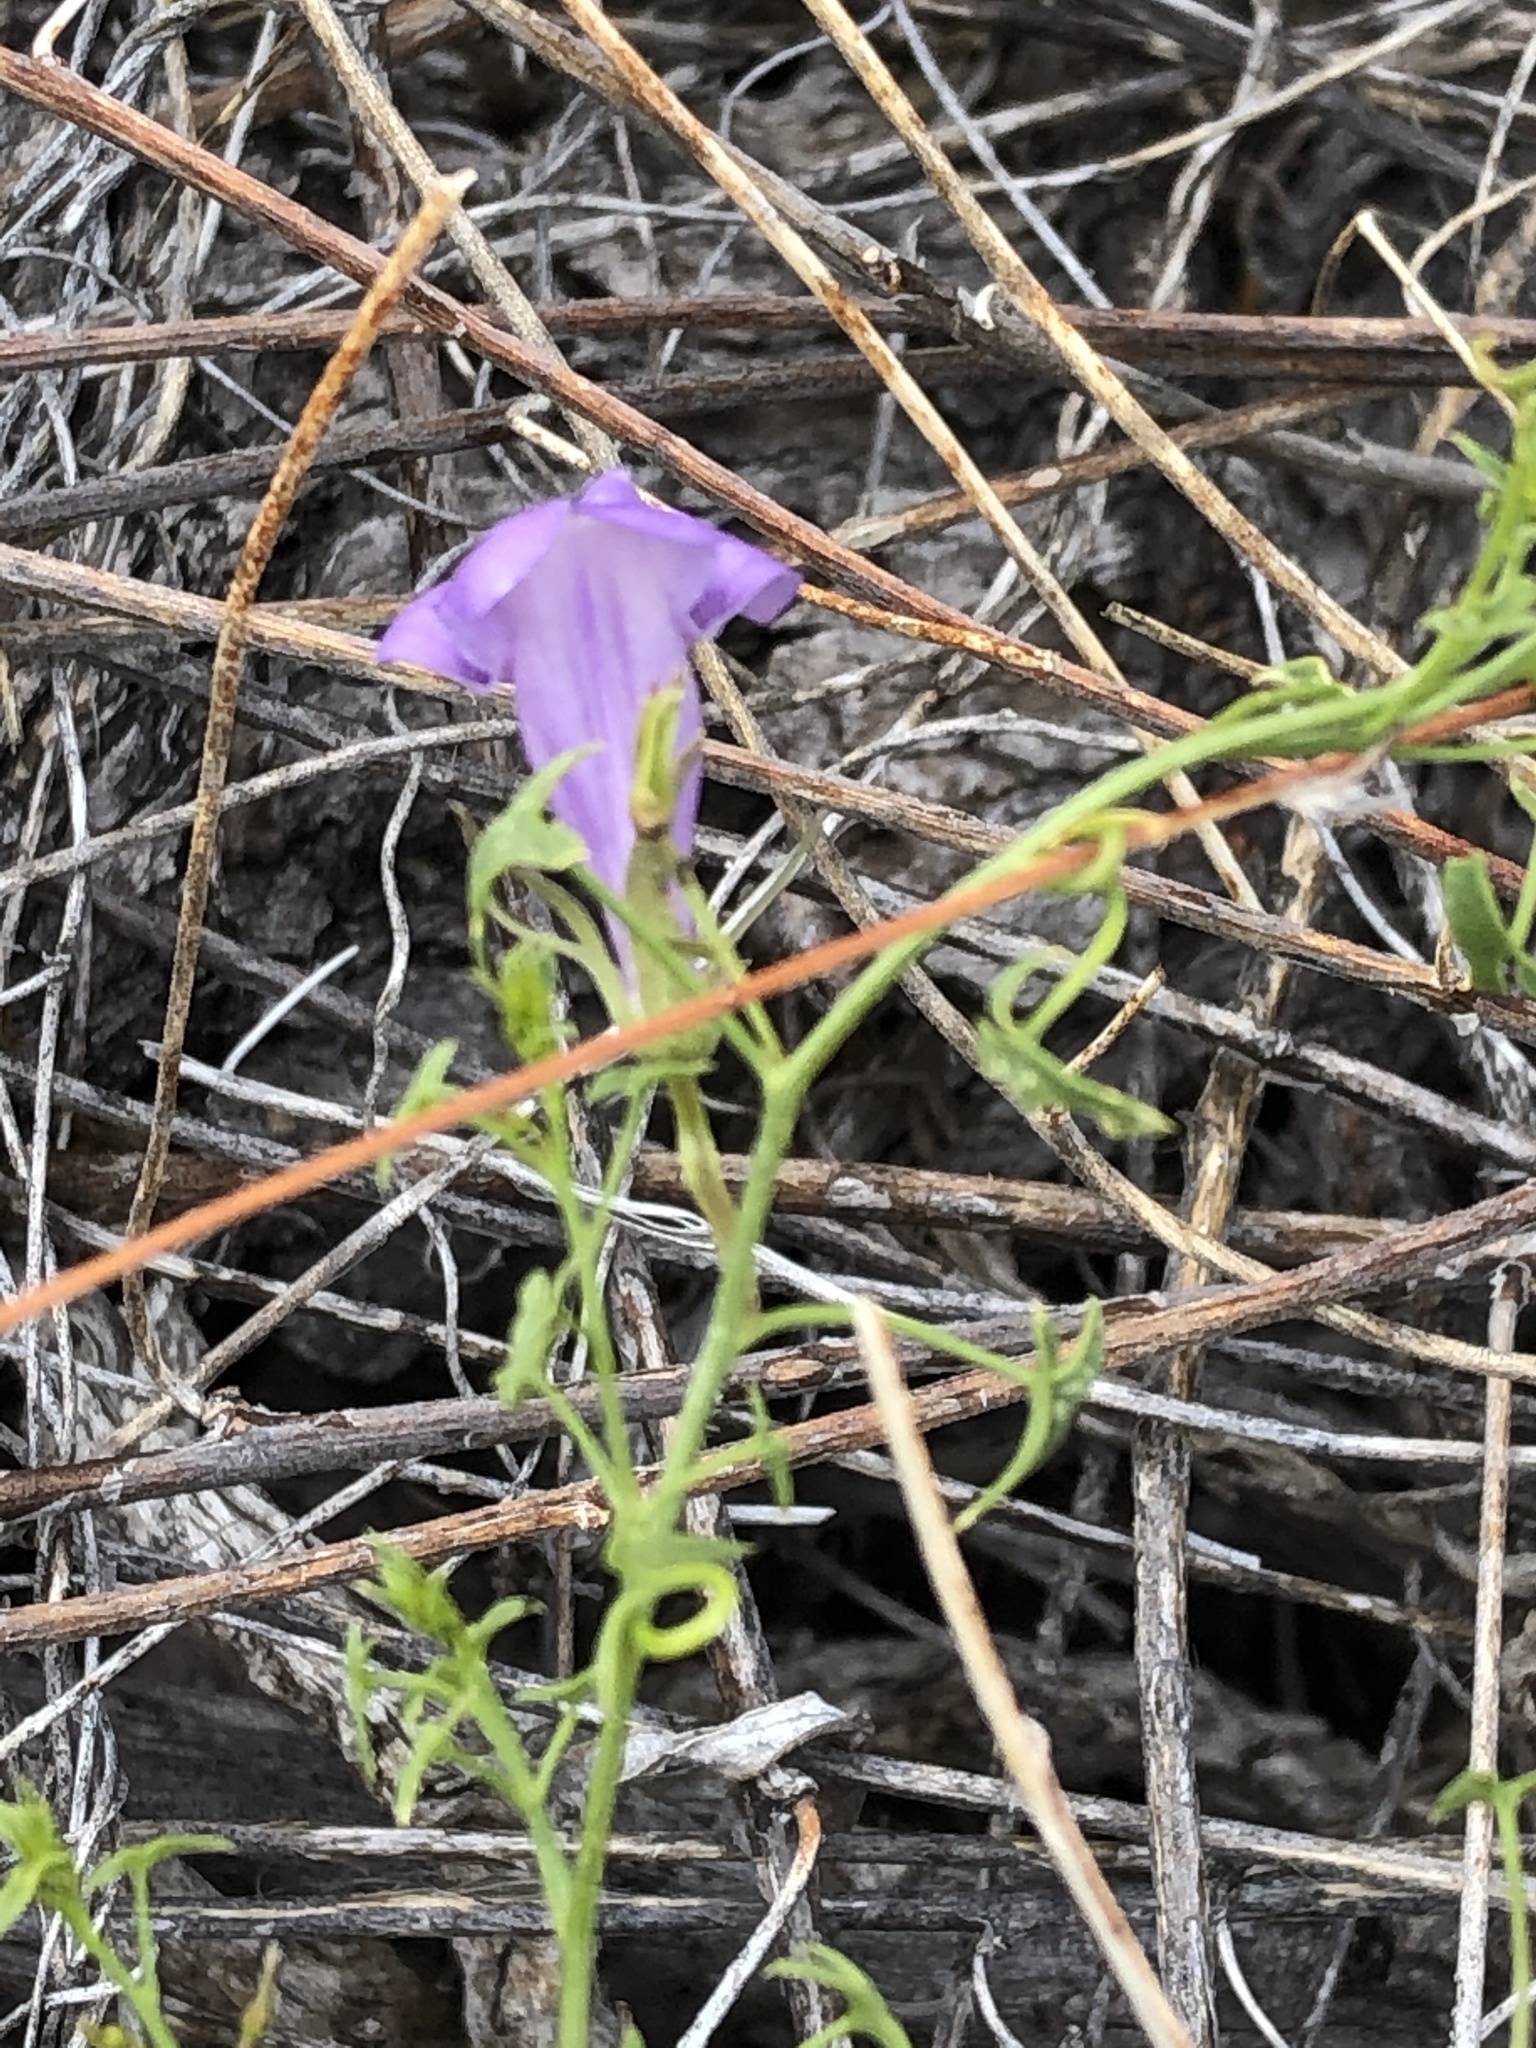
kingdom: Plantae
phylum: Tracheophyta
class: Magnoliopsida
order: Lamiales
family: Plantaginaceae
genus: Maurandella
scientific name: Maurandella antirrhiniflora
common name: Violet twining-snapdragon
